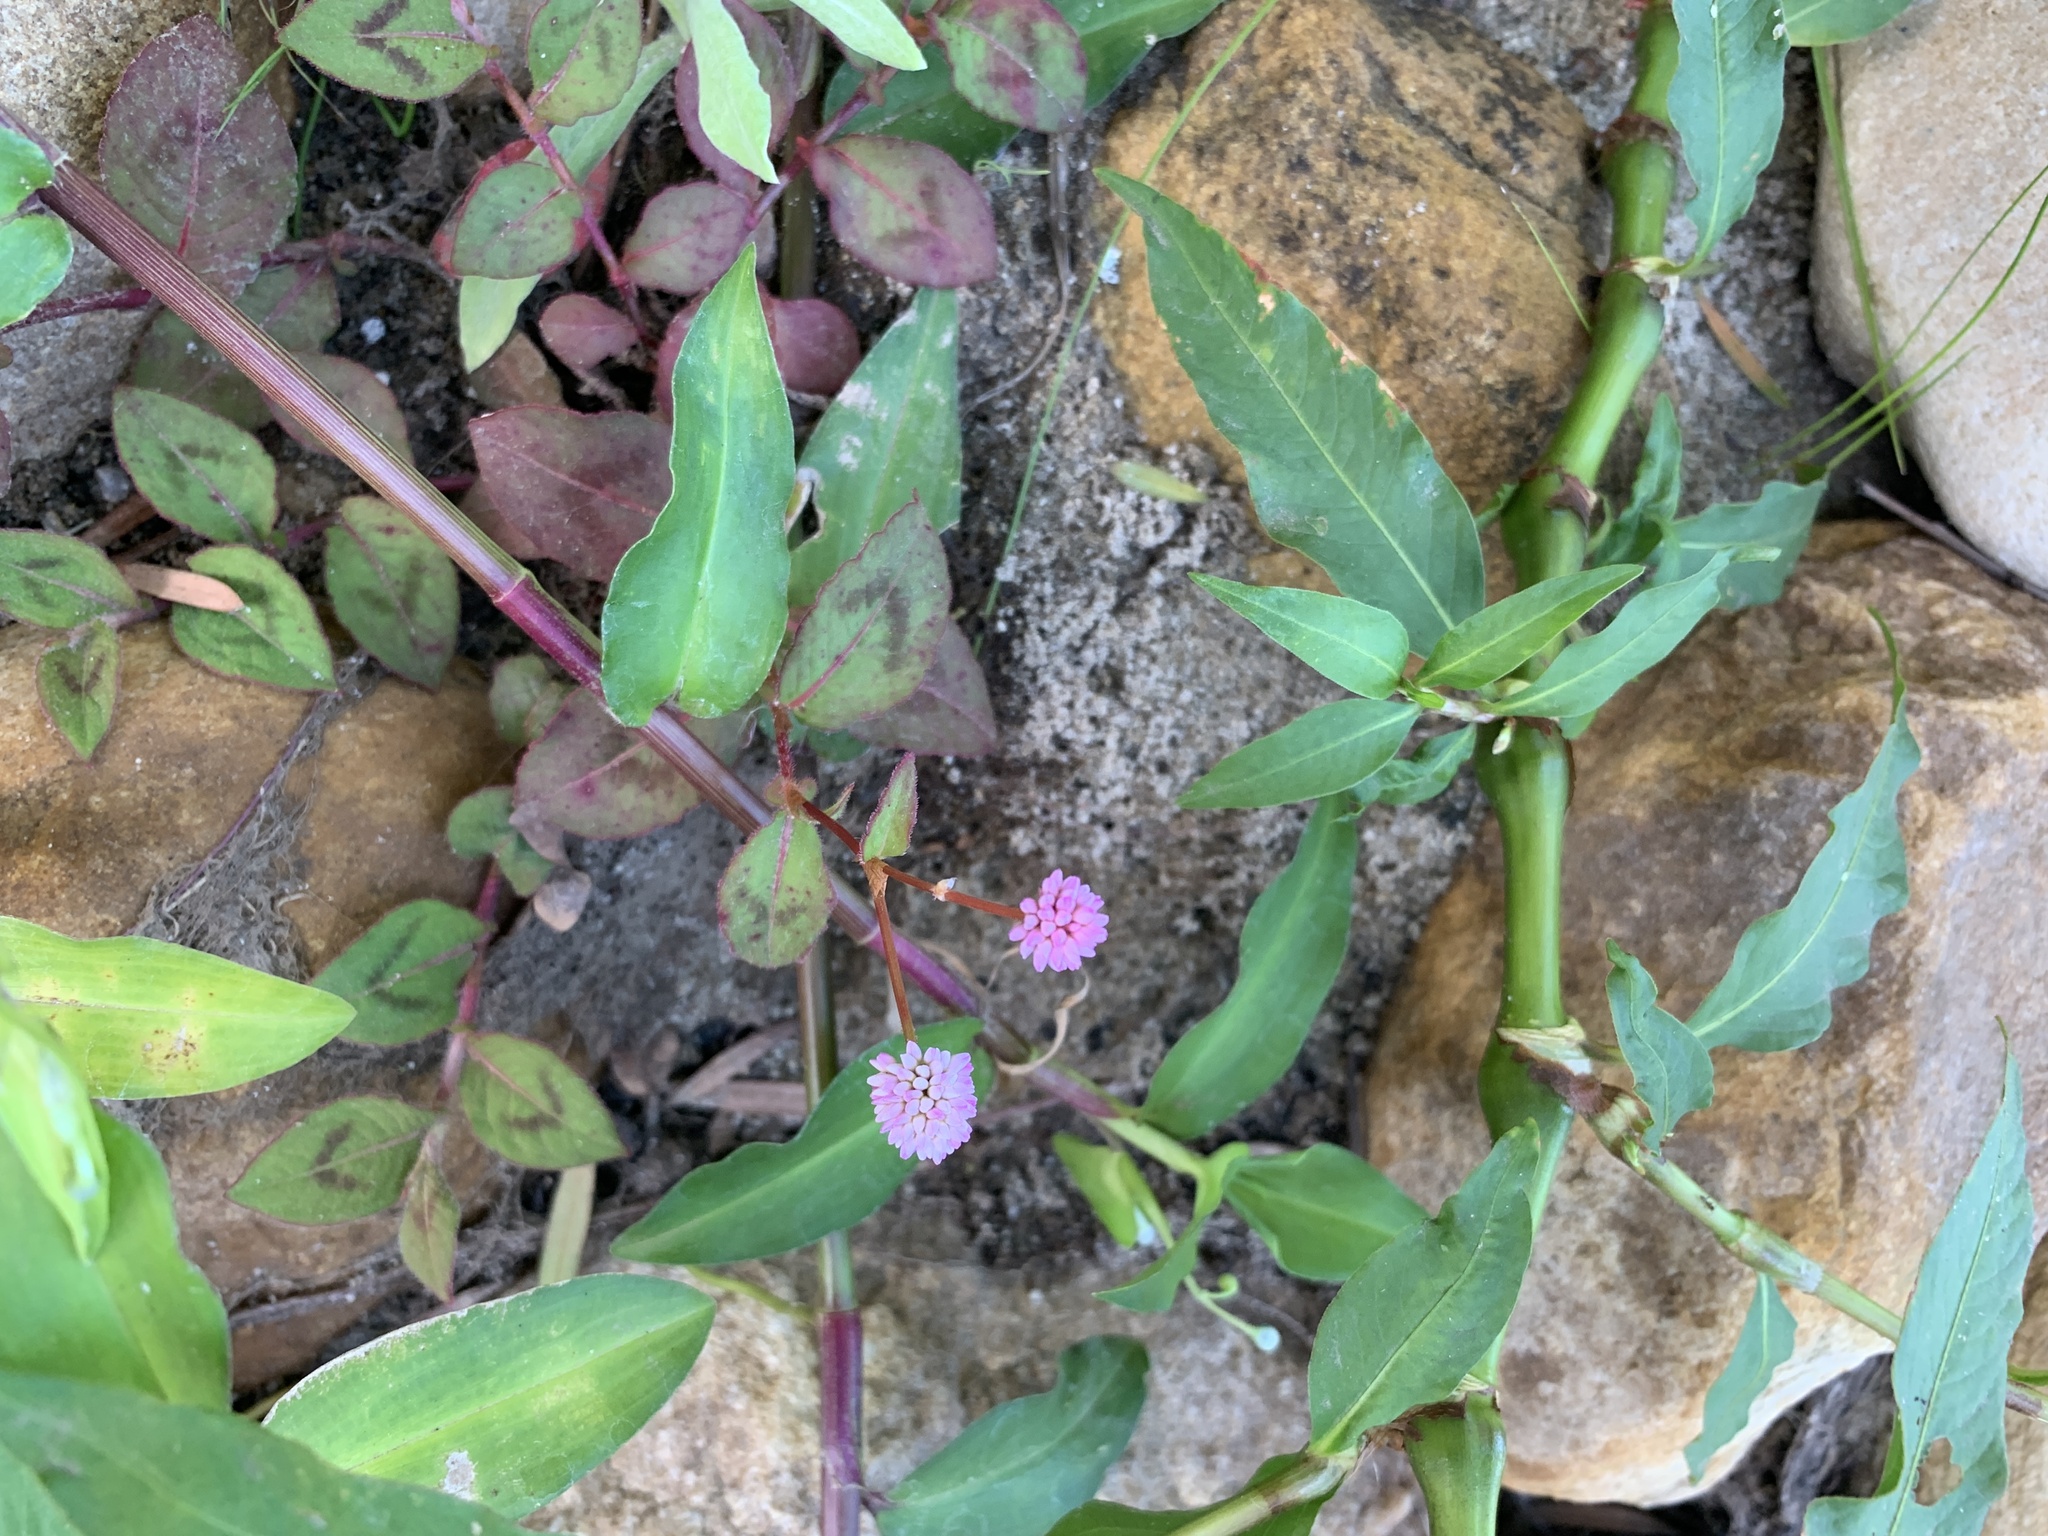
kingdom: Plantae
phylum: Tracheophyta
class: Magnoliopsida
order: Caryophyllales
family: Polygonaceae
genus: Persicaria
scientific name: Persicaria capitata
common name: Pinkhead smartweed
